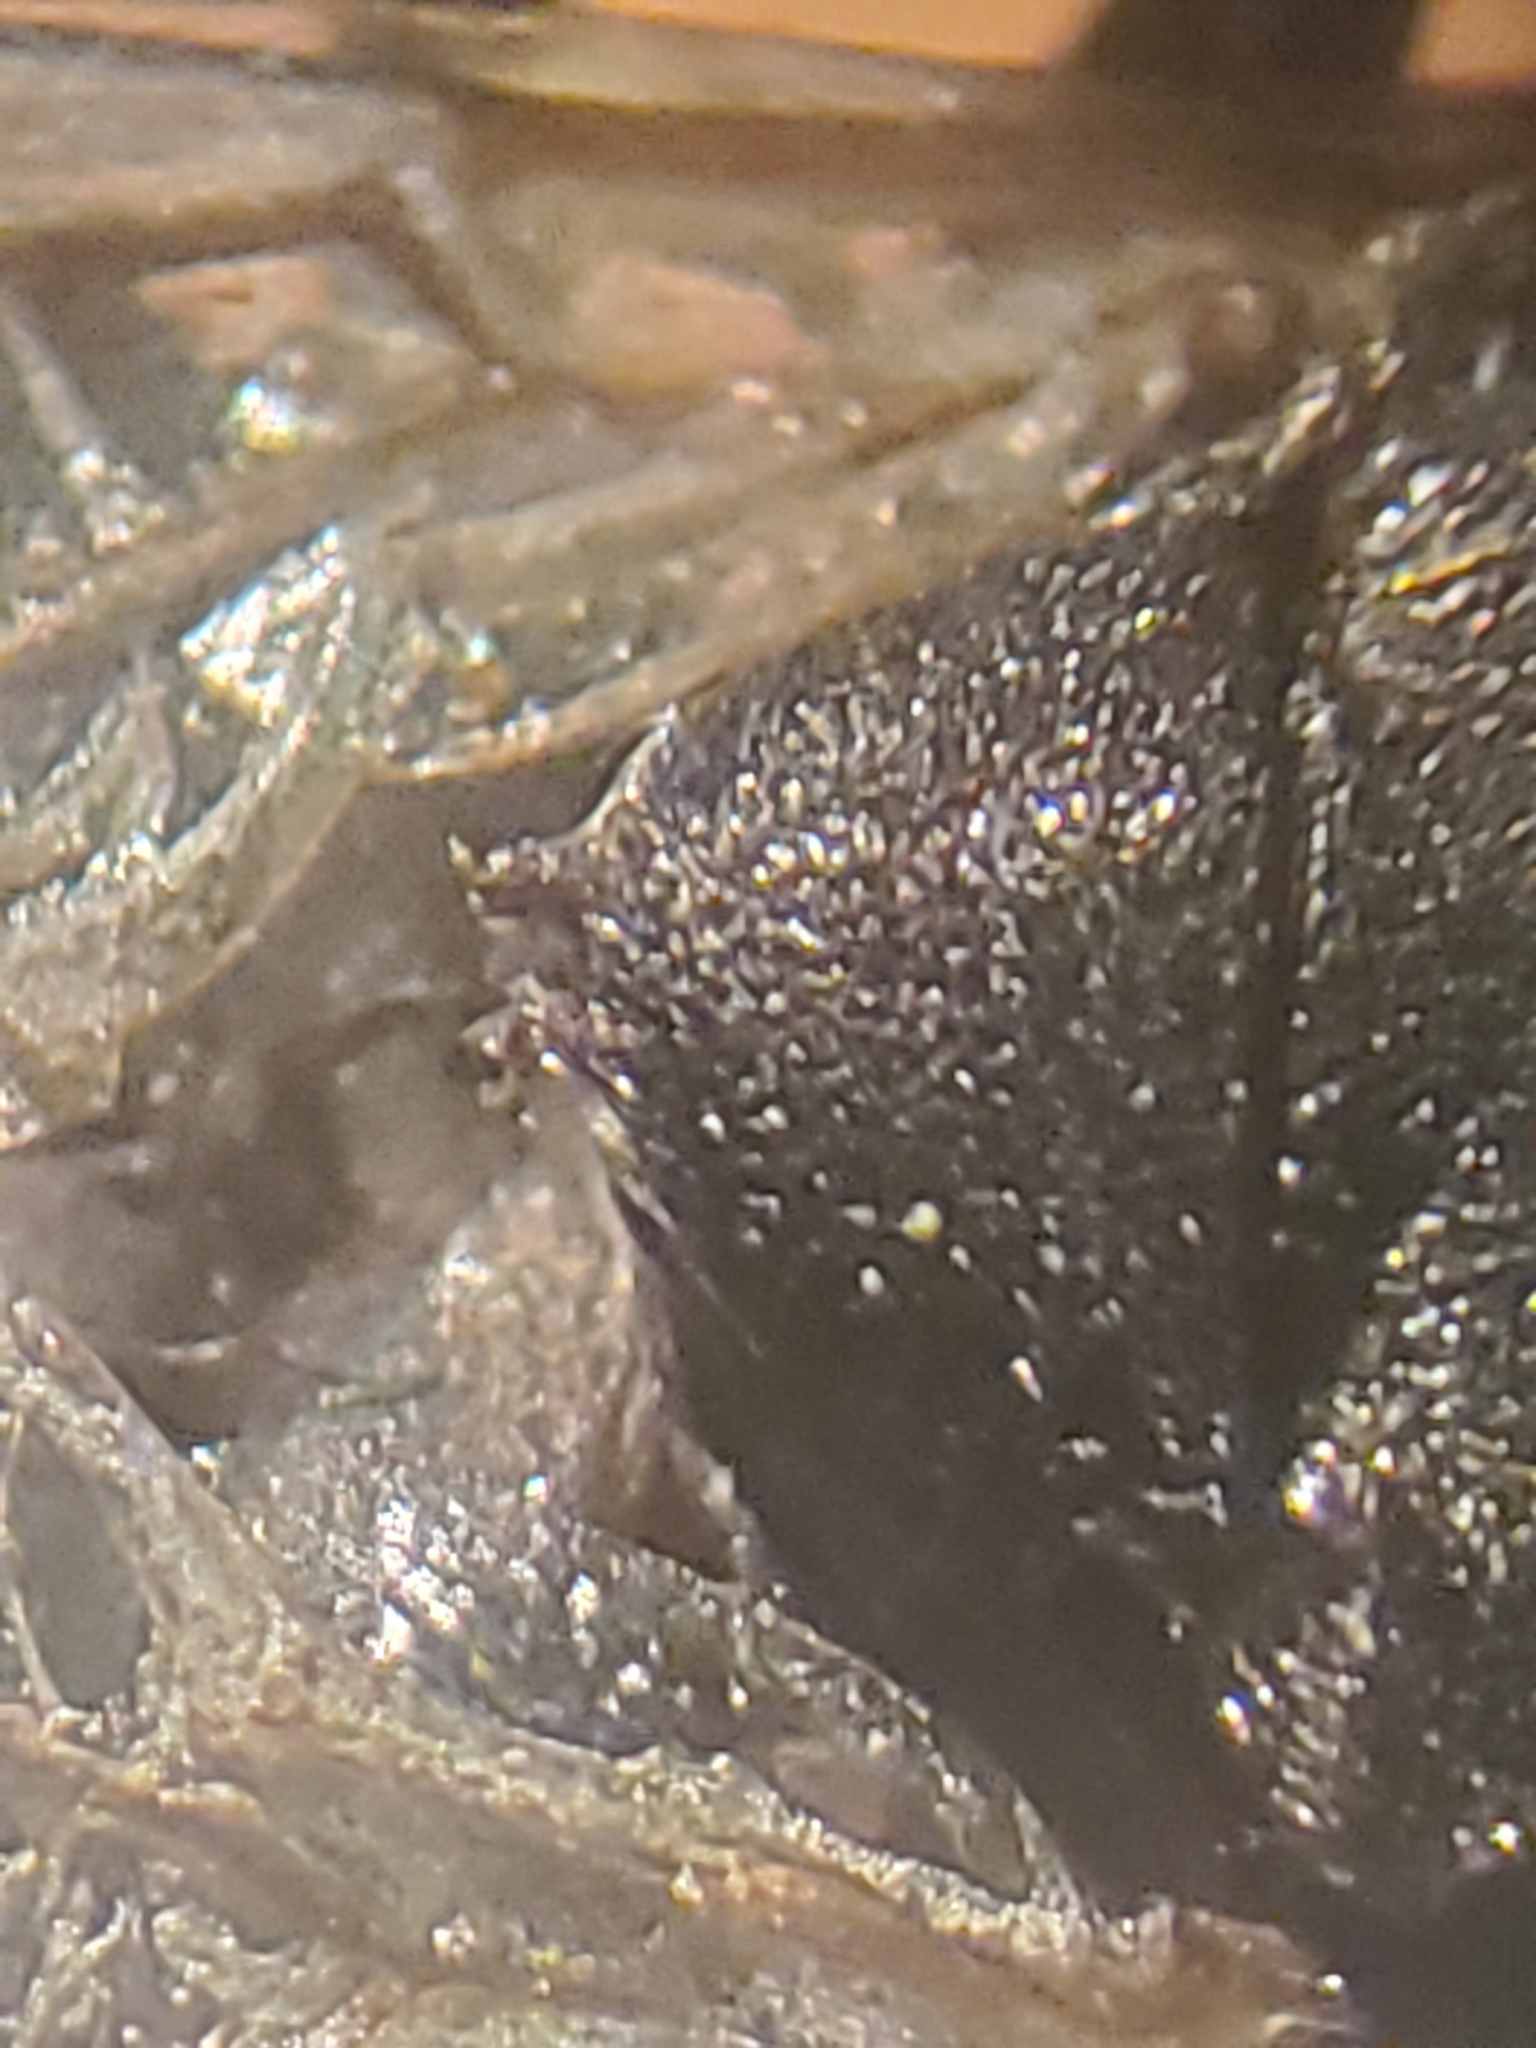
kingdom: Animalia
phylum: Arthropoda
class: Insecta
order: Diptera
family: Stratiomyidae
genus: Dieuryneura
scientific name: Dieuryneura stigma
